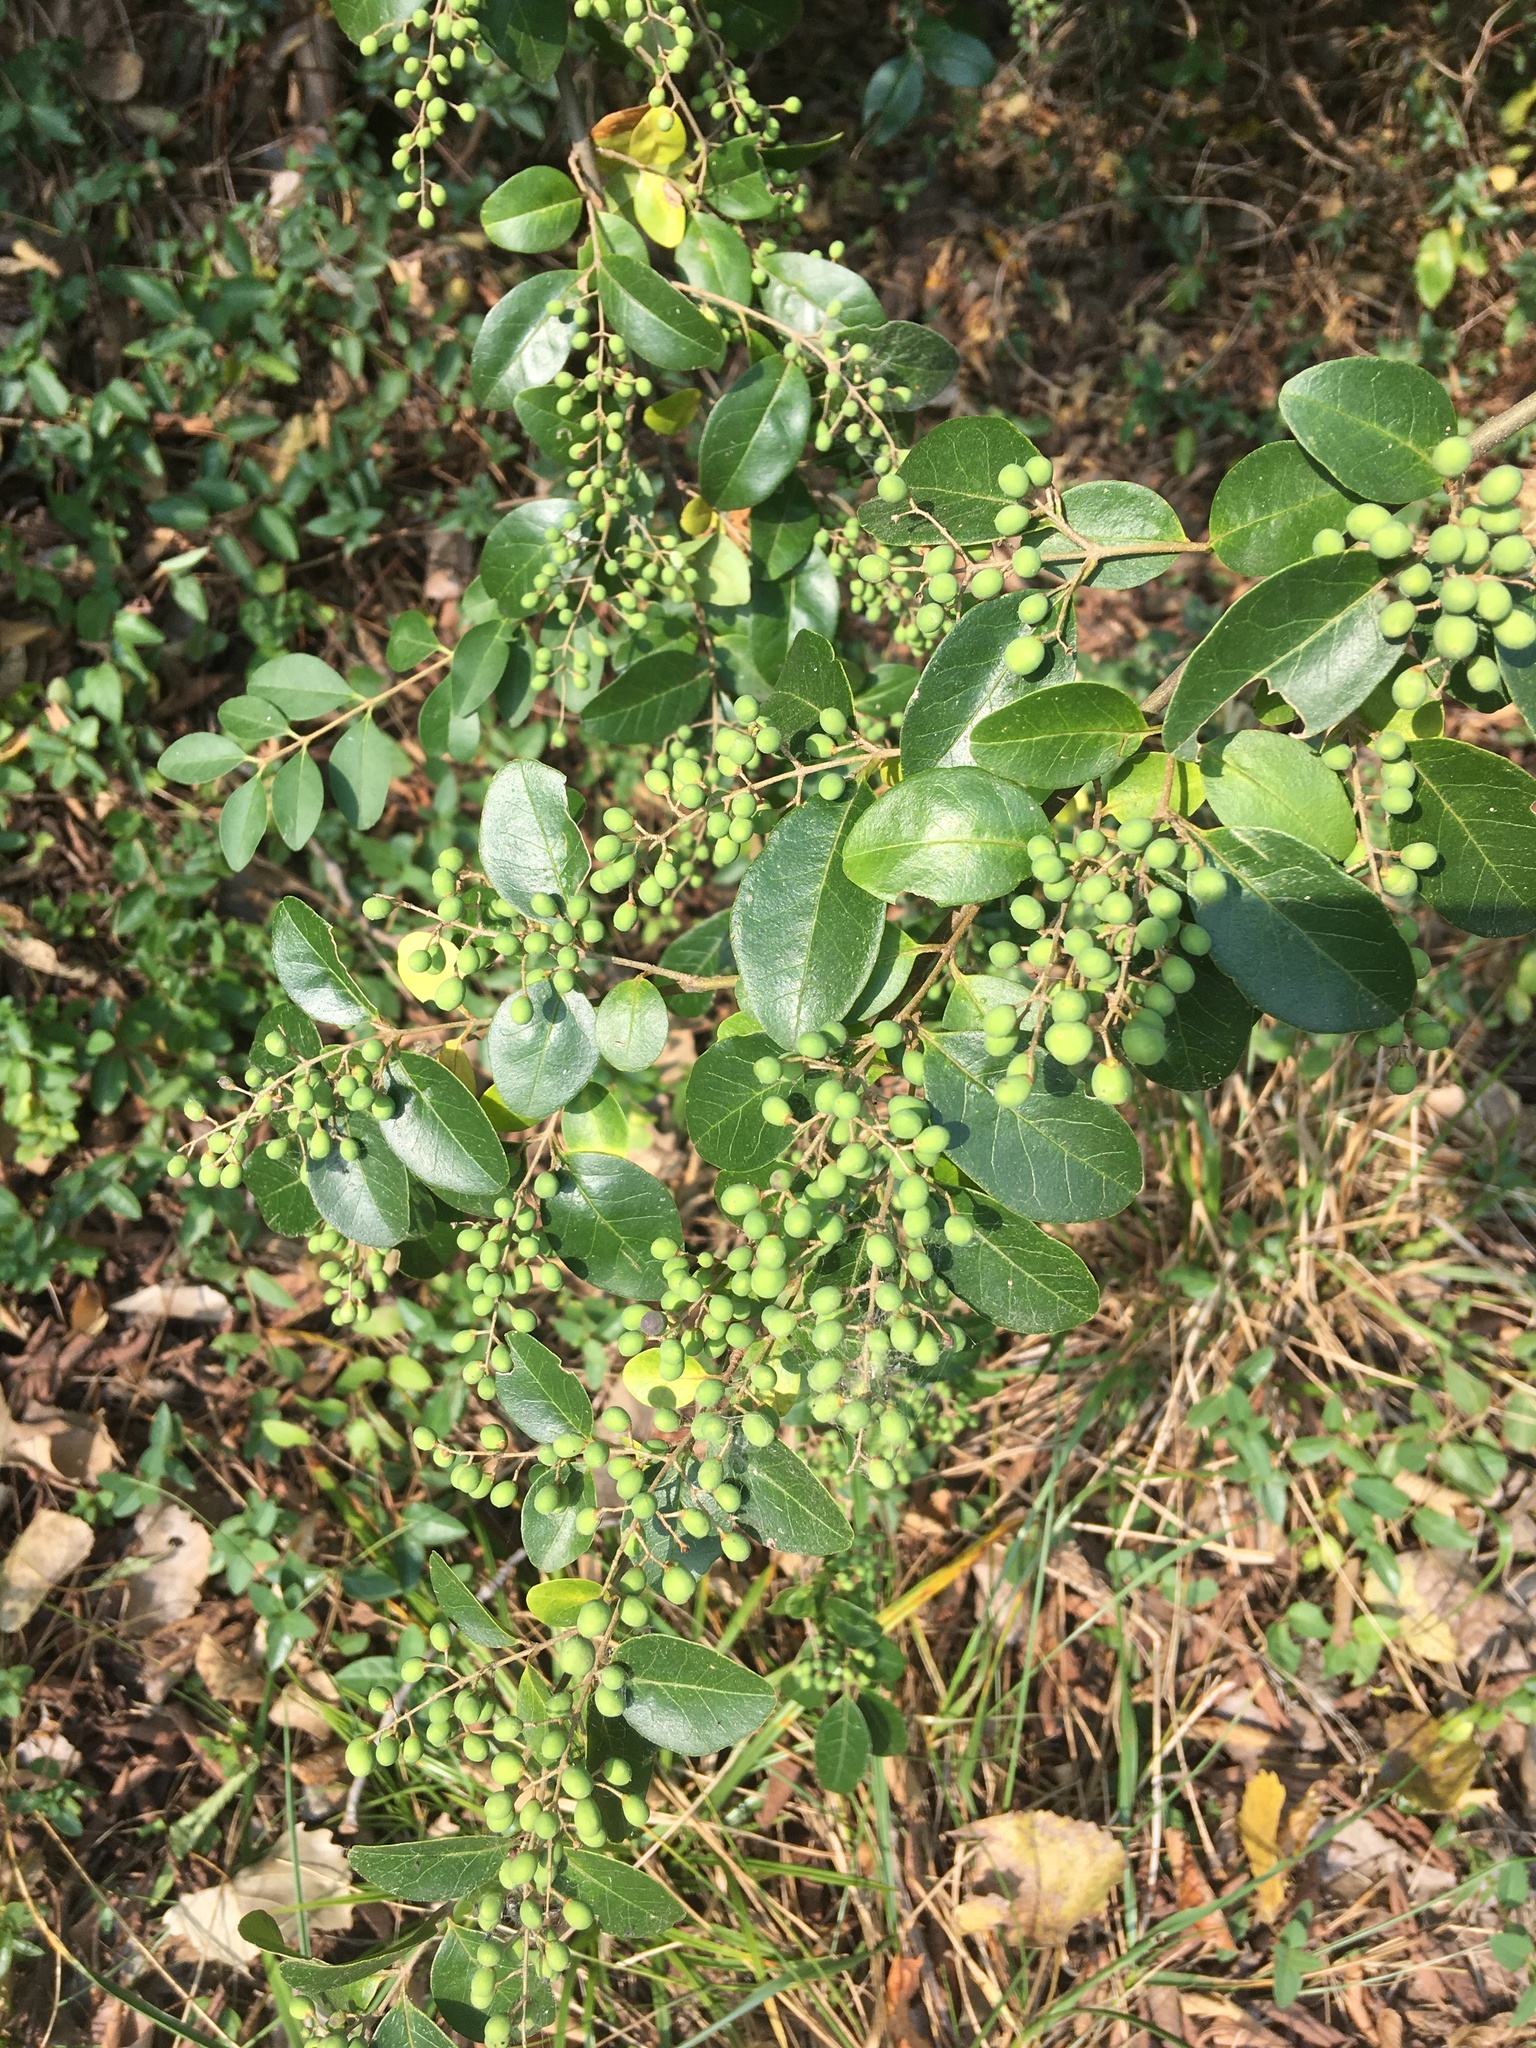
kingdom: Plantae
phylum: Tracheophyta
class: Magnoliopsida
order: Lamiales
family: Oleaceae
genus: Ligustrum
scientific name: Ligustrum sinense
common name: Chinese privet
